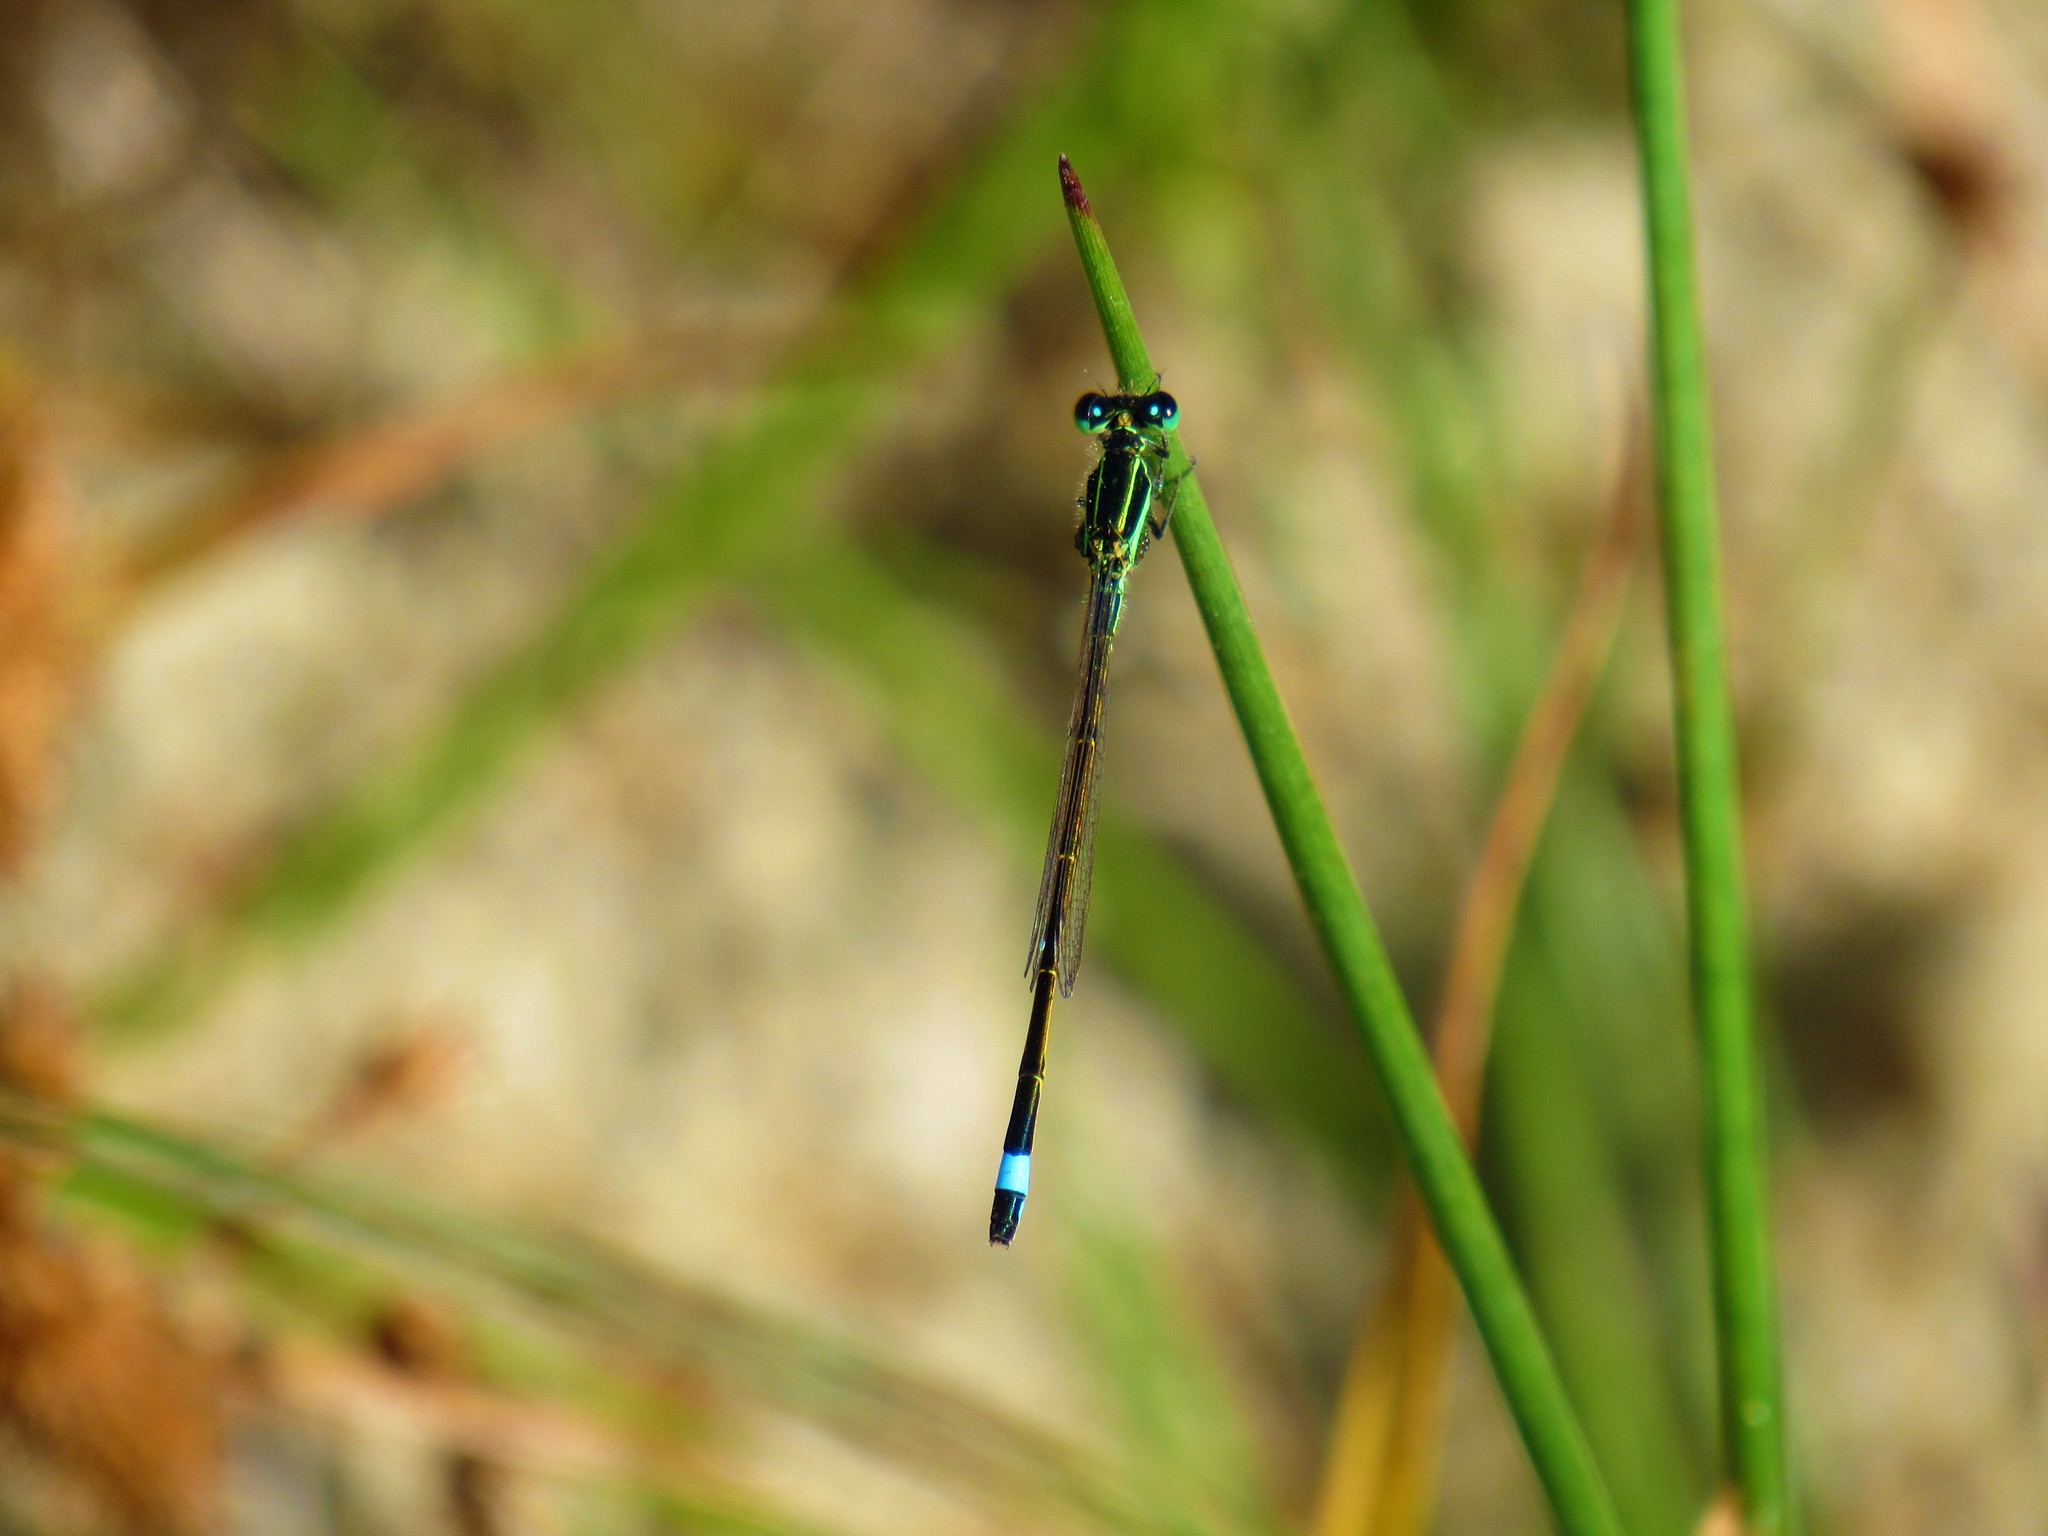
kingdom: Animalia
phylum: Arthropoda
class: Insecta
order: Odonata
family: Coenagrionidae
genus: Ischnura
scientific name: Ischnura ramburii
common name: Rambur's forktail
